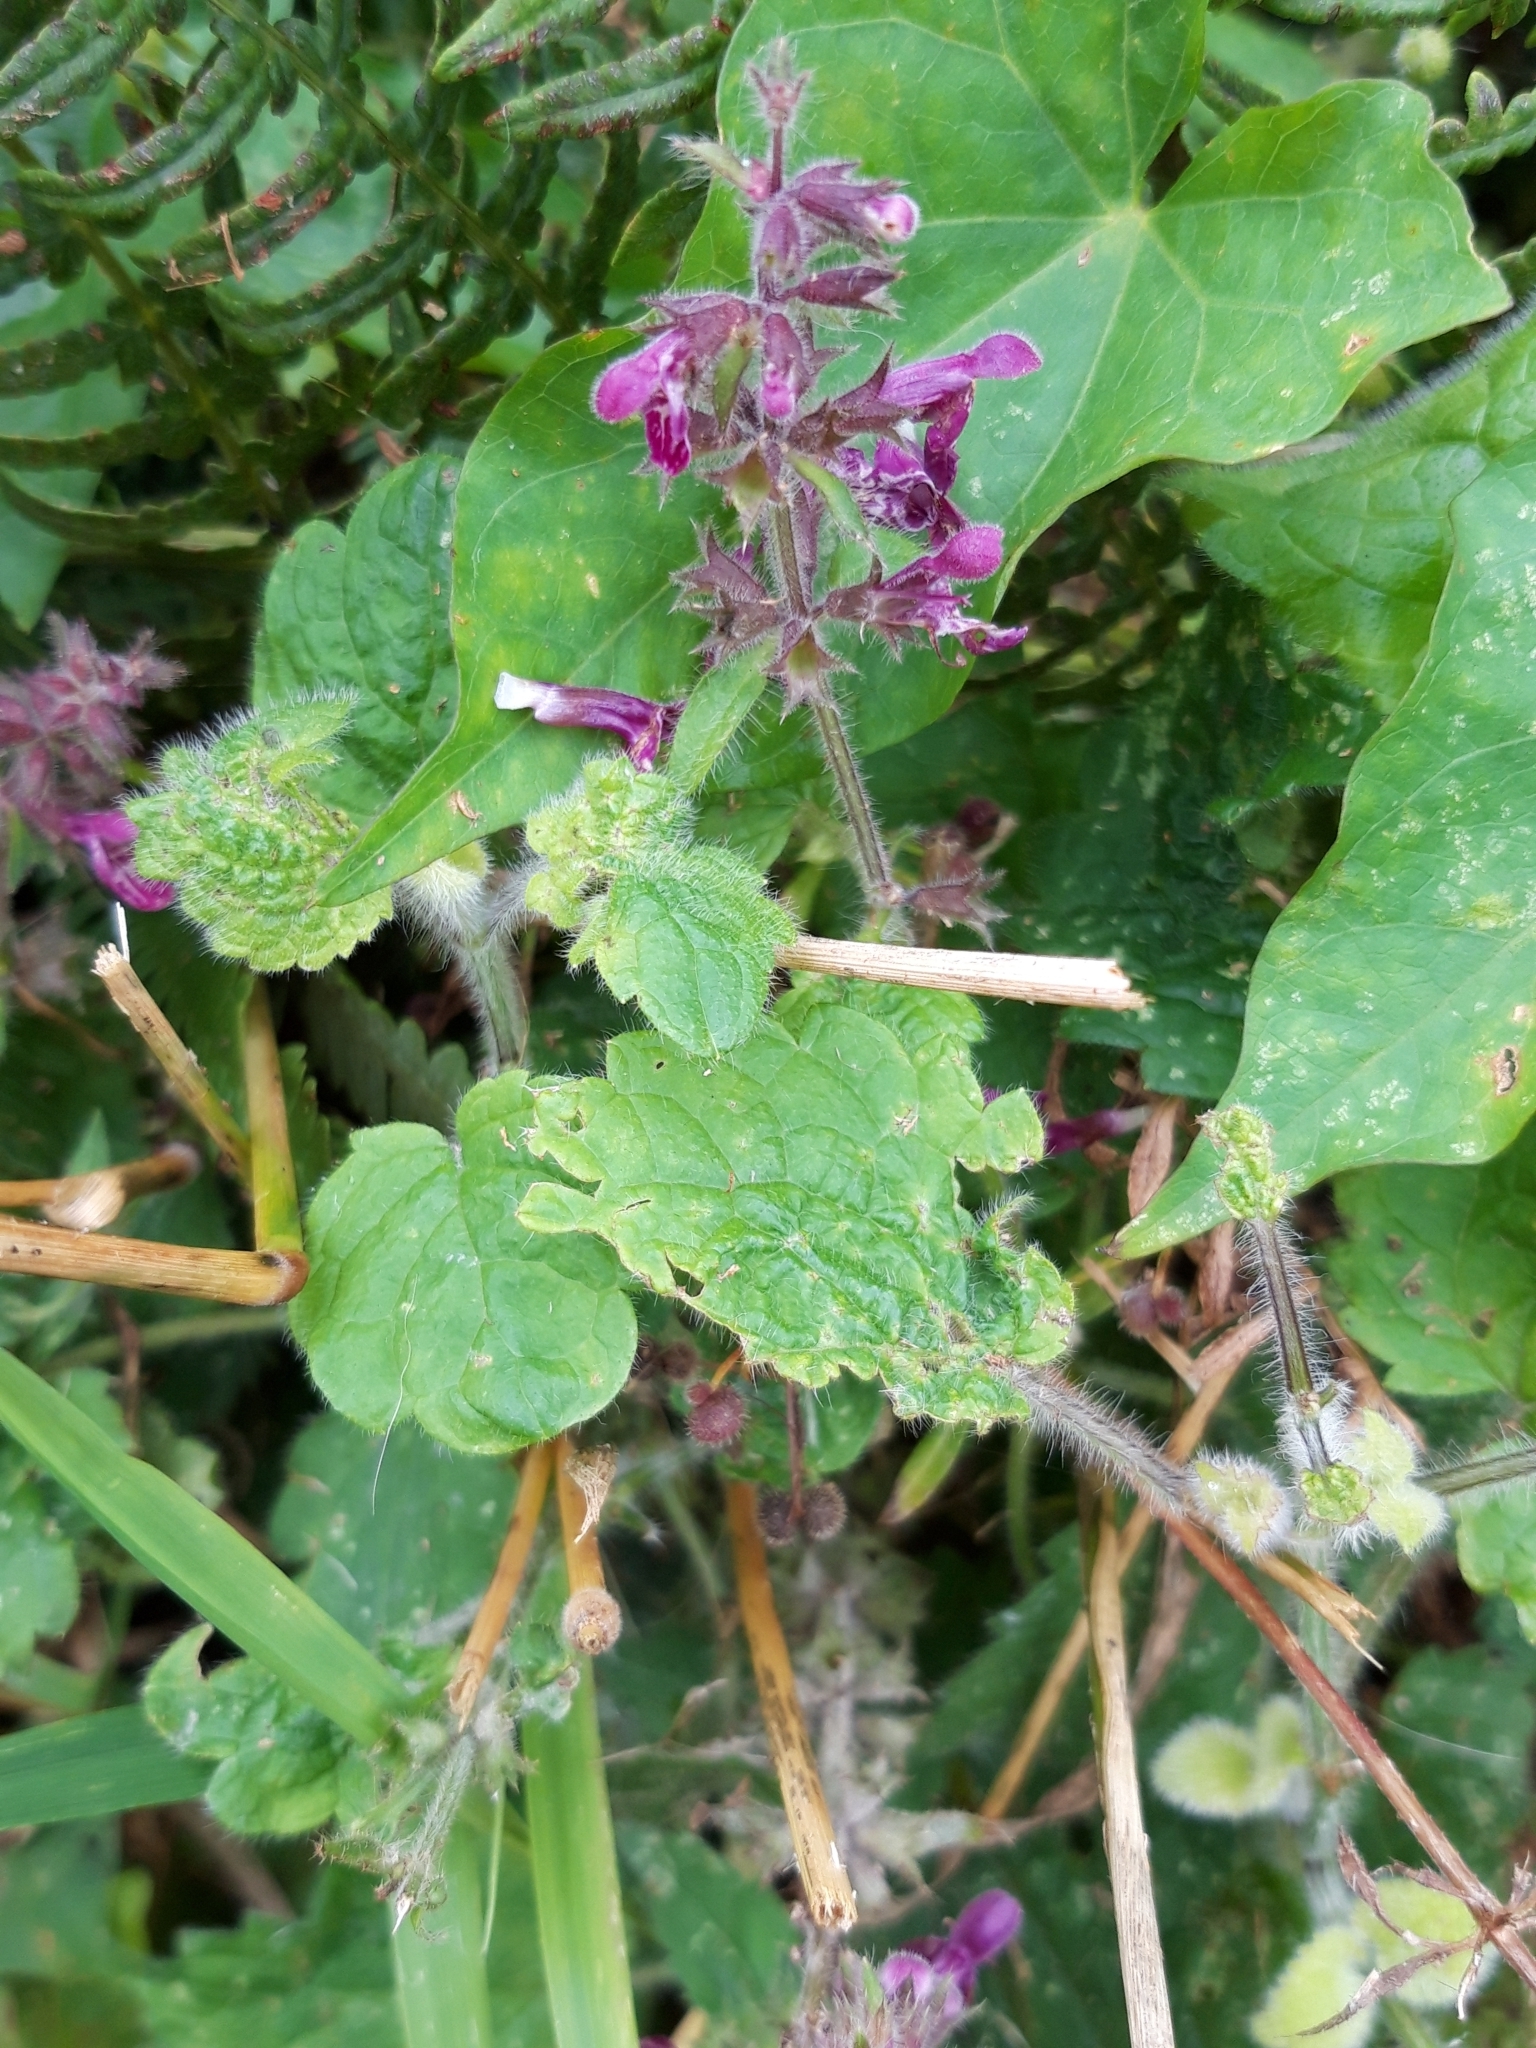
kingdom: Plantae
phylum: Tracheophyta
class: Magnoliopsida
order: Lamiales
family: Lamiaceae
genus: Stachys
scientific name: Stachys sylvatica
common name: Hedge woundwort
